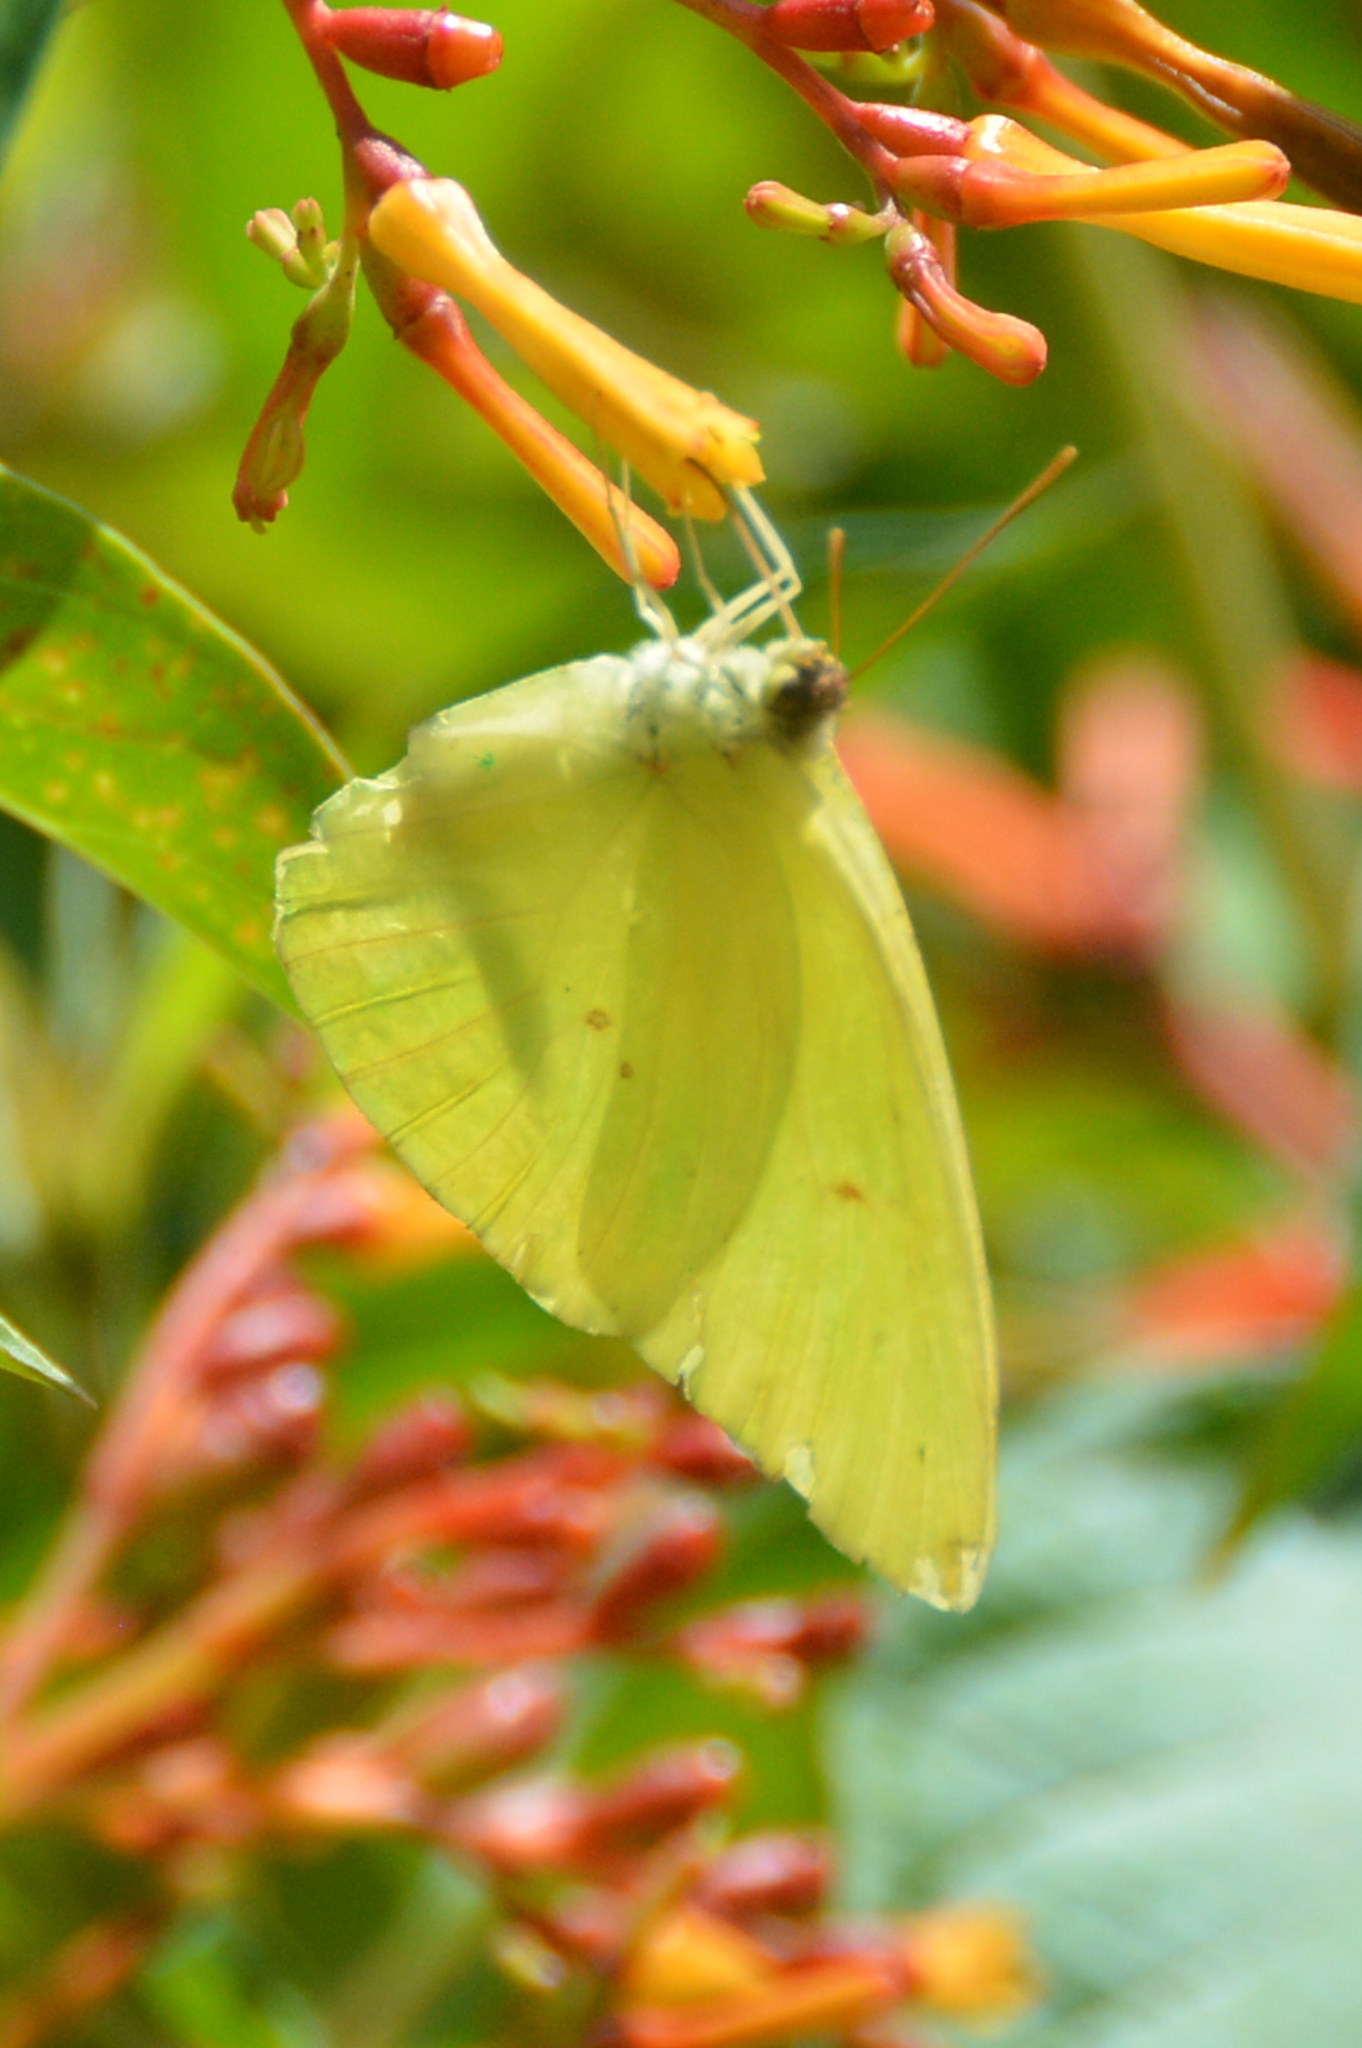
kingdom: Animalia
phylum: Arthropoda
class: Insecta
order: Lepidoptera
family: Pieridae
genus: Phoebis
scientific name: Phoebis sennae
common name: Cloudless sulphur
